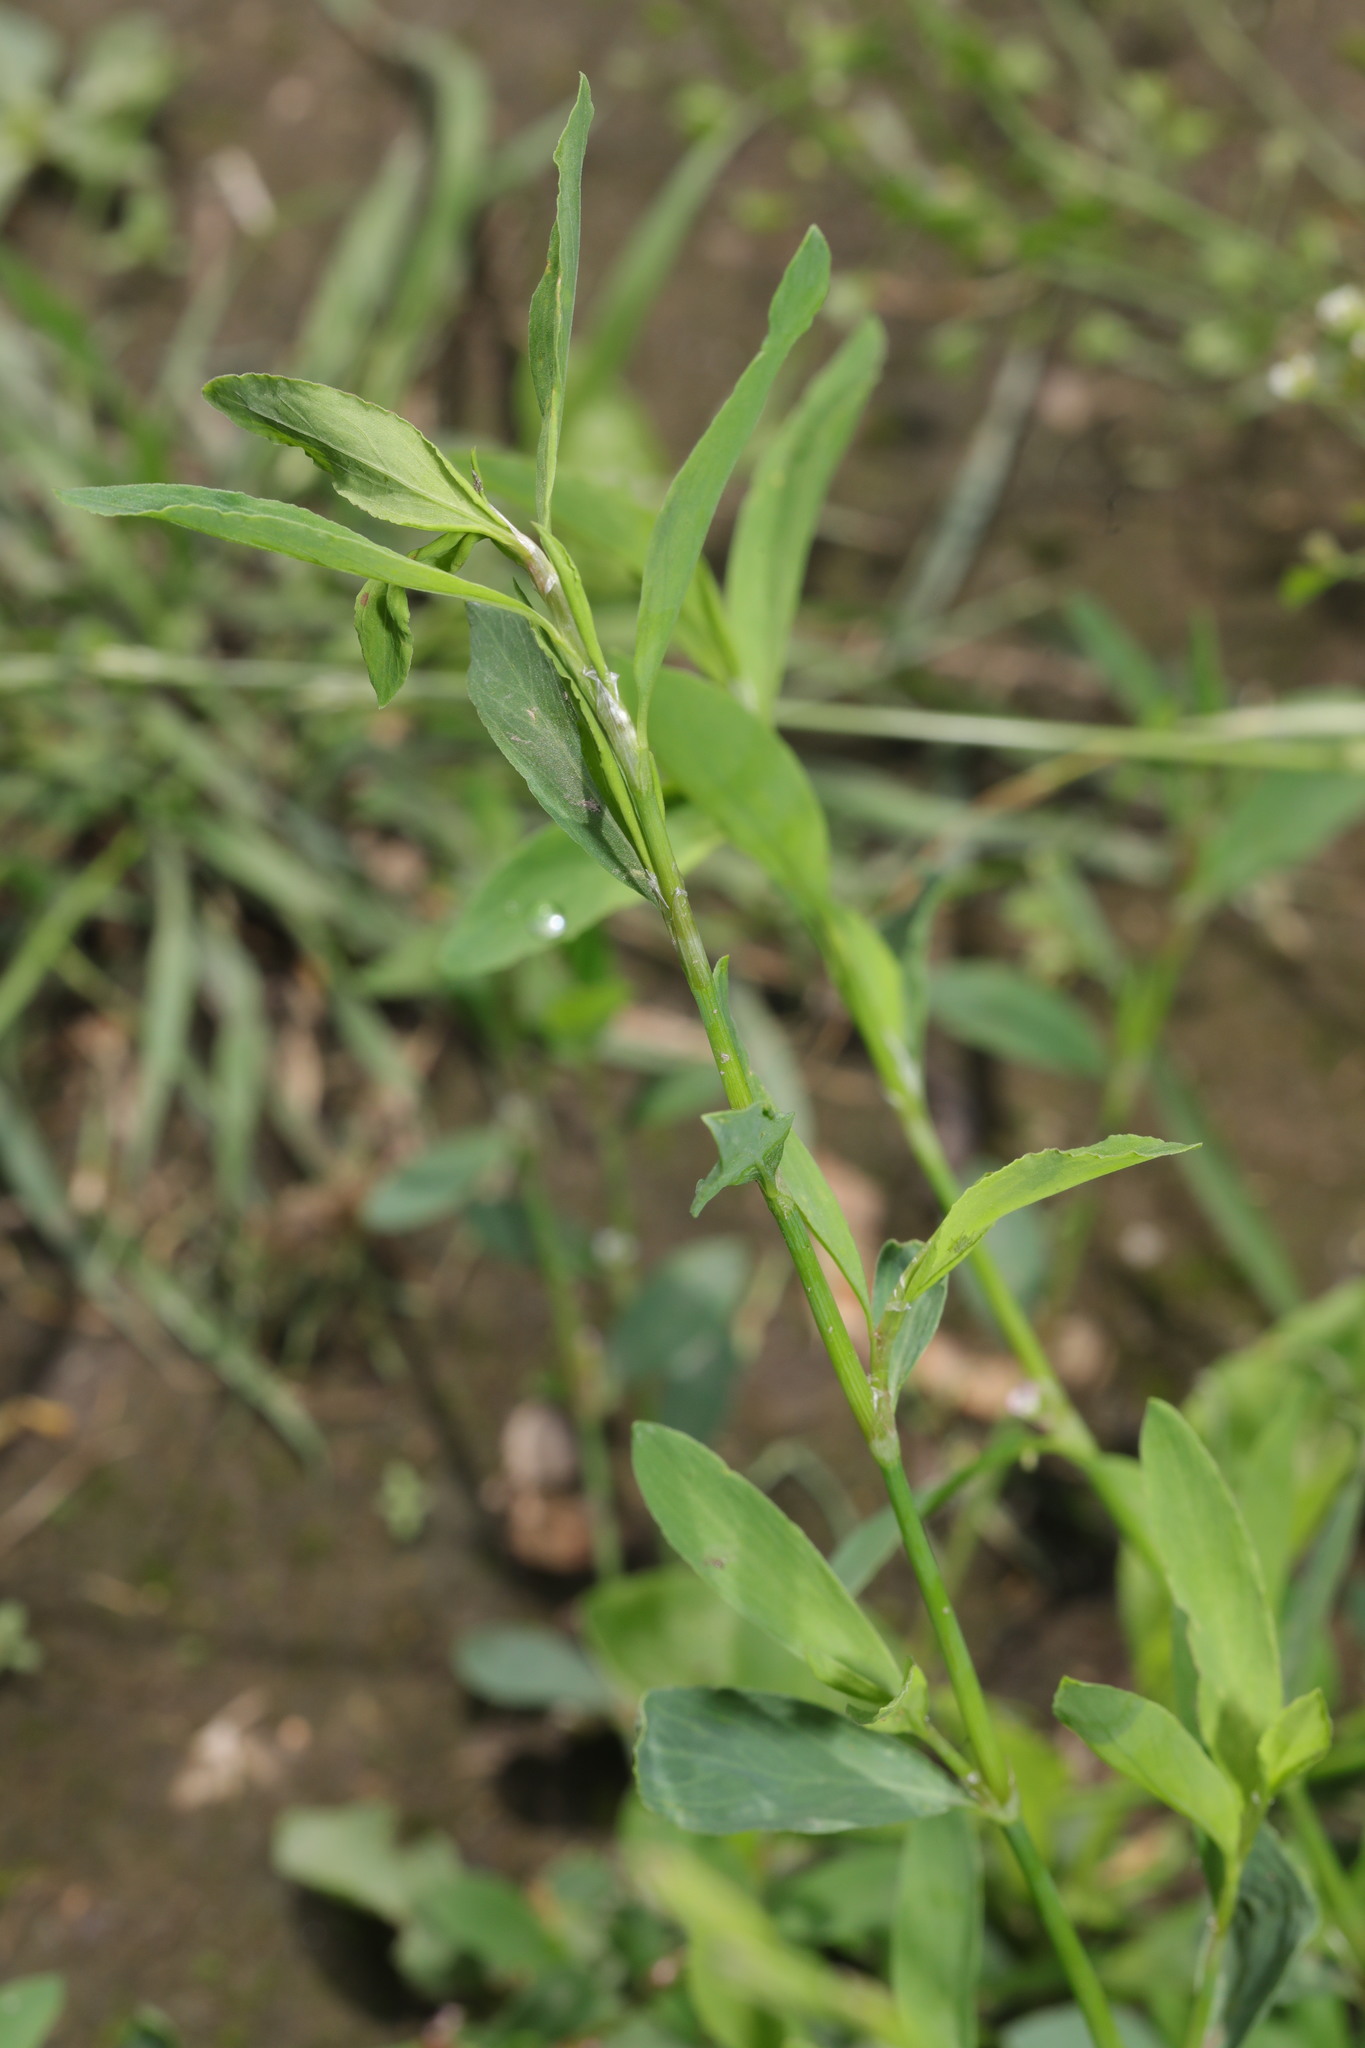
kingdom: Plantae
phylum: Tracheophyta
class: Magnoliopsida
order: Caryophyllales
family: Polygonaceae
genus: Polygonum
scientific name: Polygonum aviculare
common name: Prostrate knotweed
